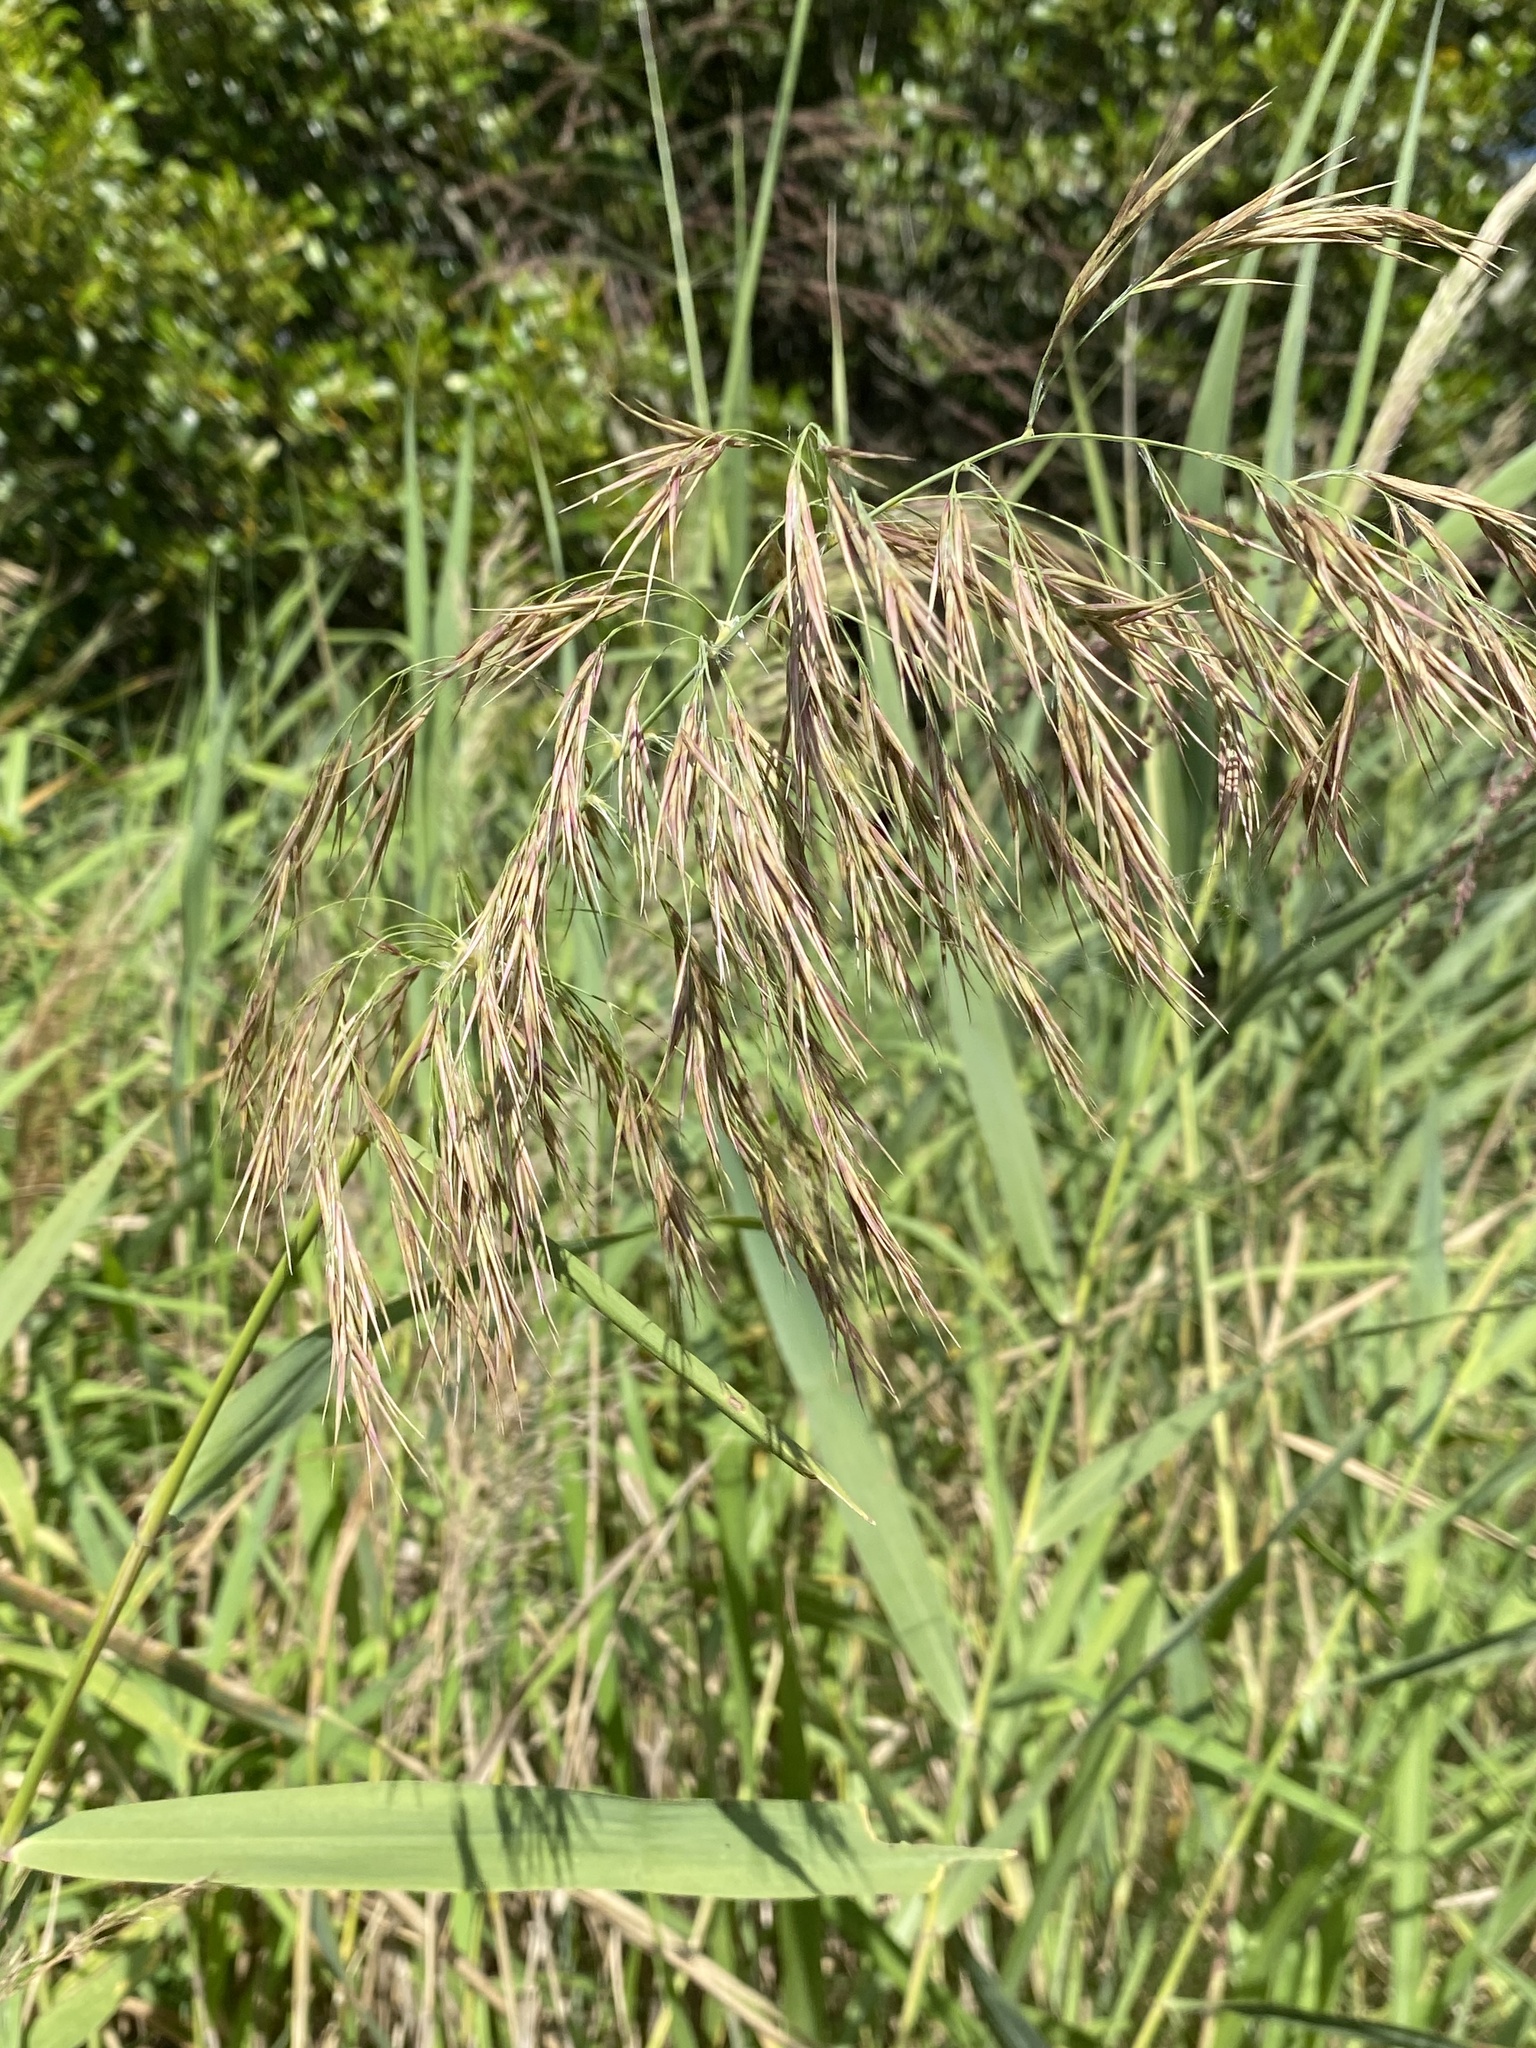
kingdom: Plantae
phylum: Tracheophyta
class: Liliopsida
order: Poales
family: Poaceae
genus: Phragmites
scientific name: Phragmites australis
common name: Common reed
